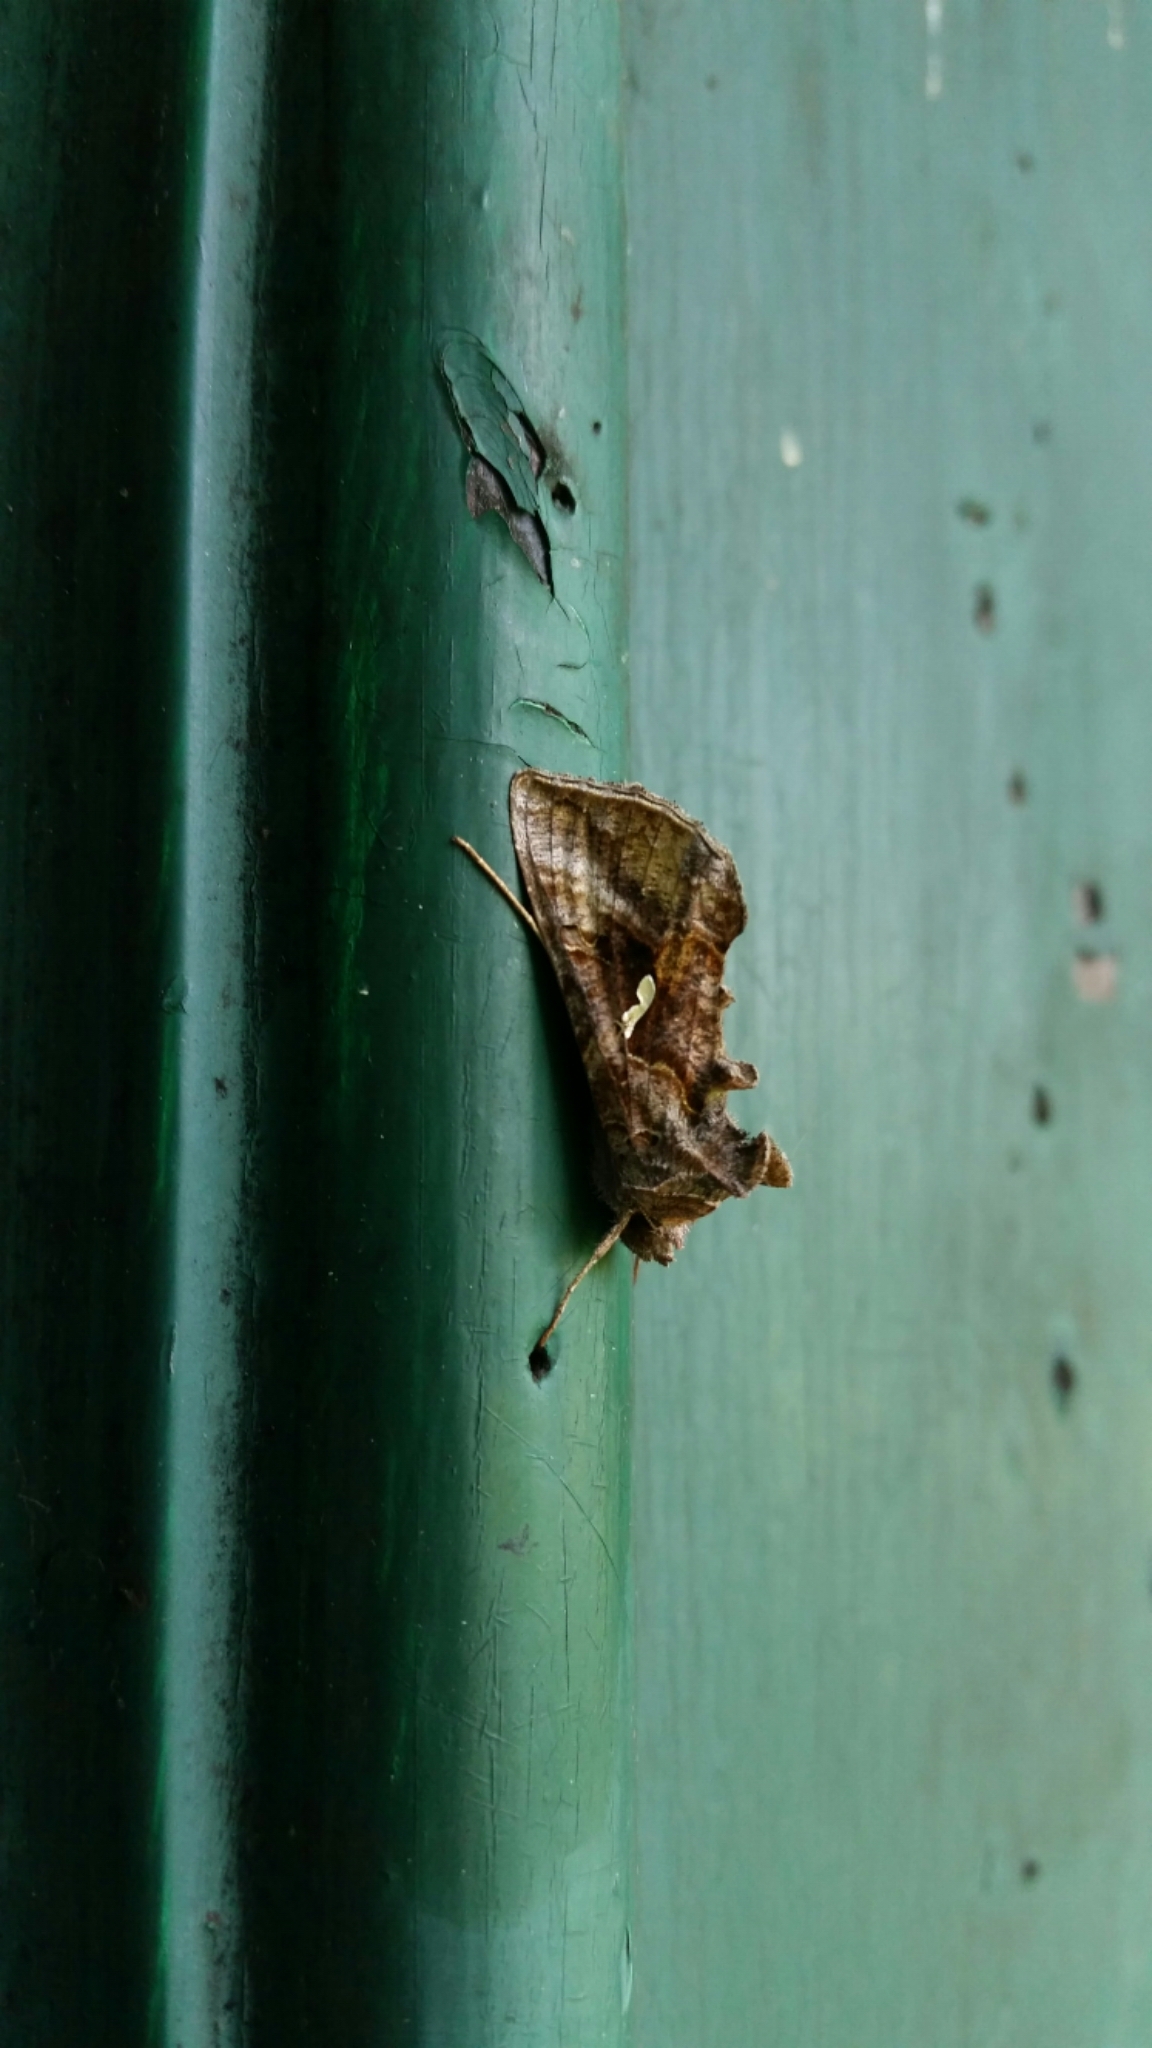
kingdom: Animalia
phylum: Arthropoda
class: Insecta
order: Lepidoptera
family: Noctuidae
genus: Autographa
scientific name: Autographa precationis
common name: Common looper moth
